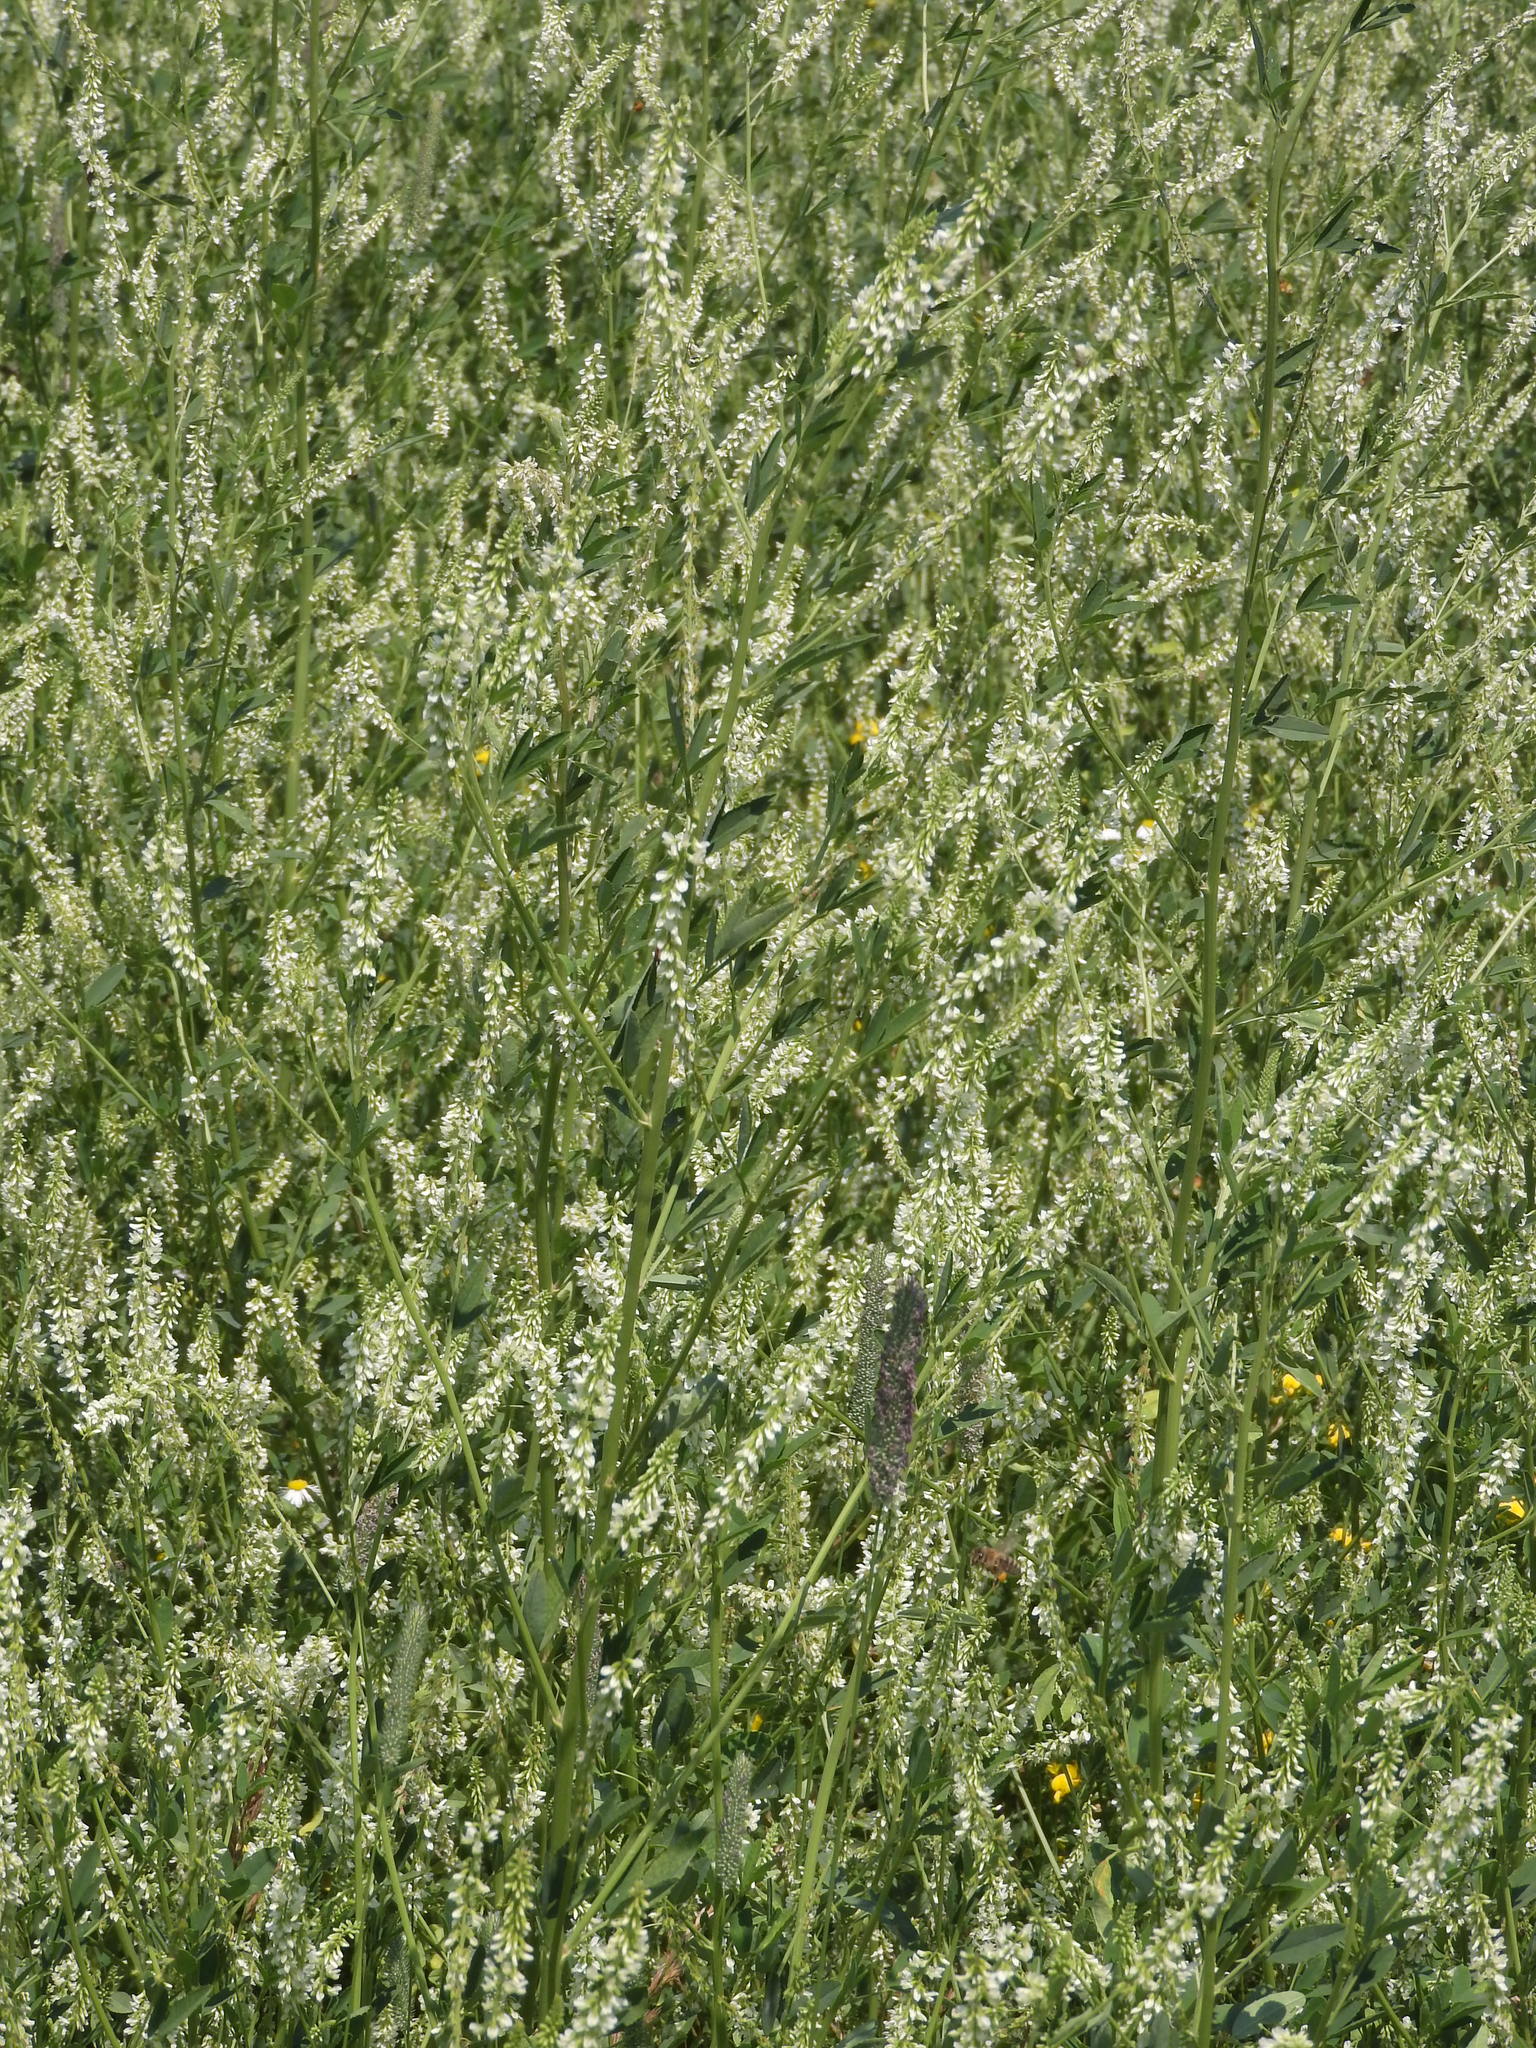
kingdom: Plantae
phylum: Tracheophyta
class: Magnoliopsida
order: Fabales
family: Fabaceae
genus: Melilotus
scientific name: Melilotus albus
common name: White melilot
